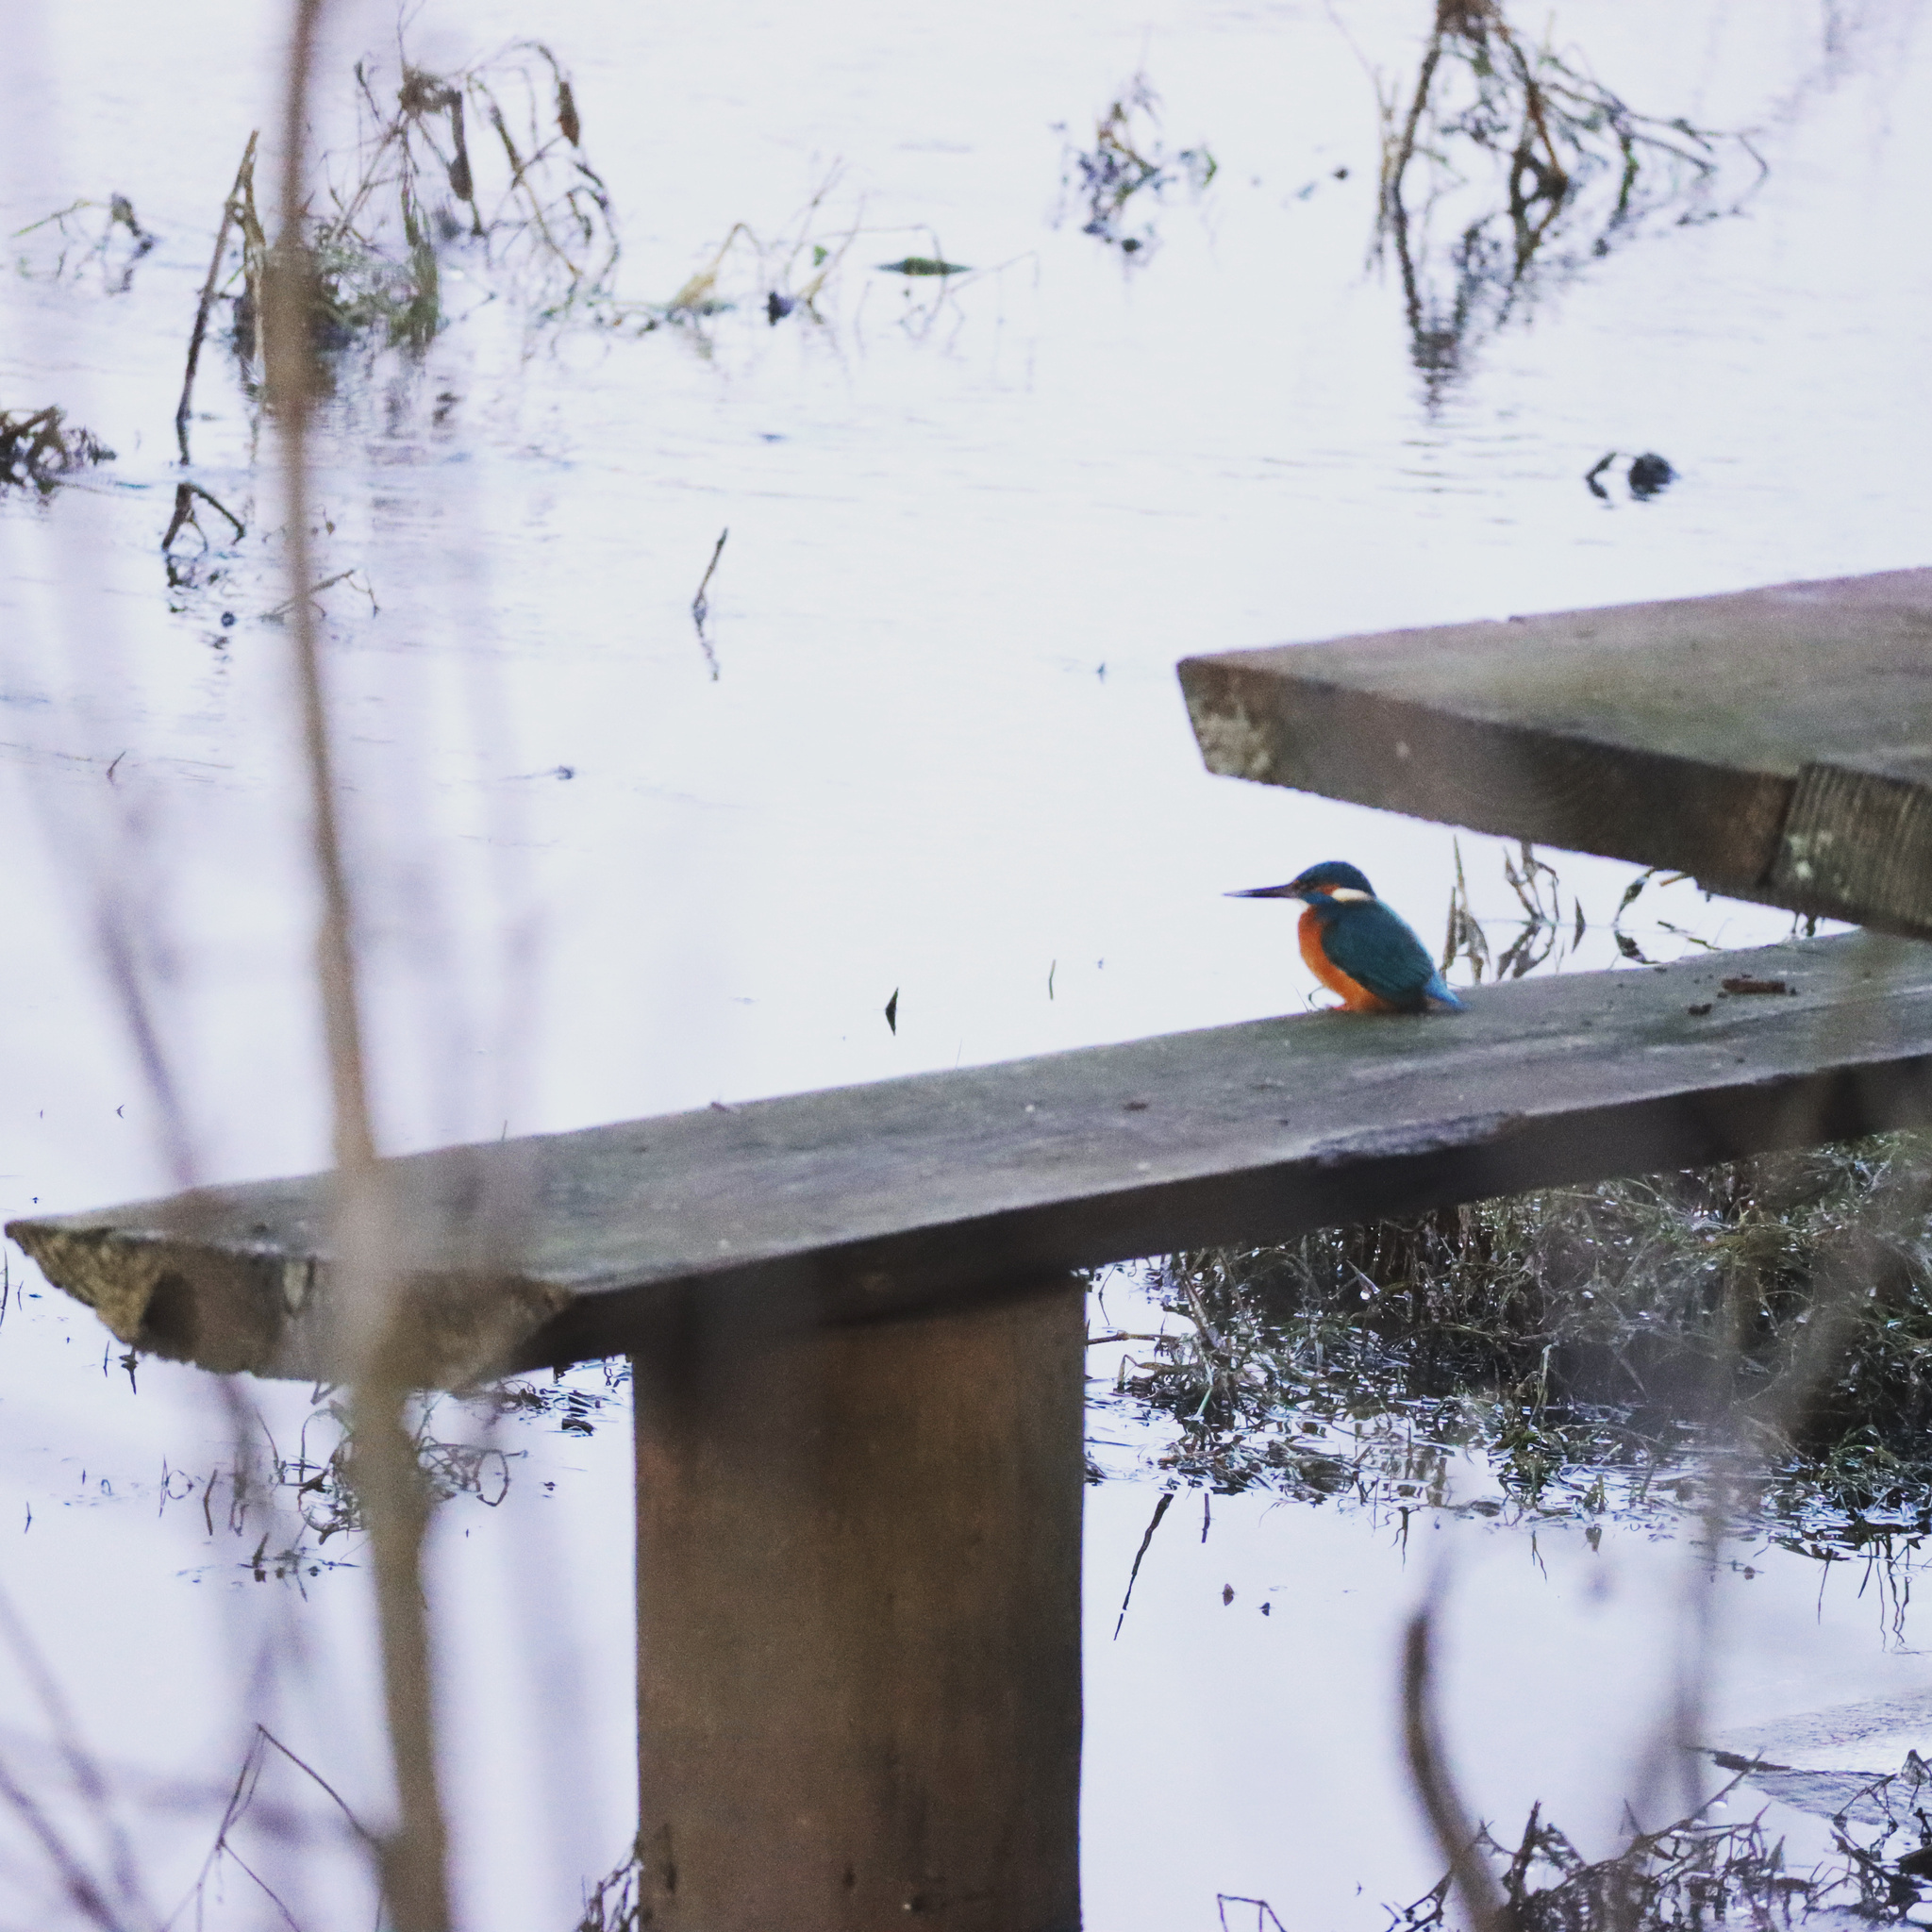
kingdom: Animalia
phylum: Chordata
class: Aves
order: Coraciiformes
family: Alcedinidae
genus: Alcedo
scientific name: Alcedo atthis
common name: Common kingfisher
